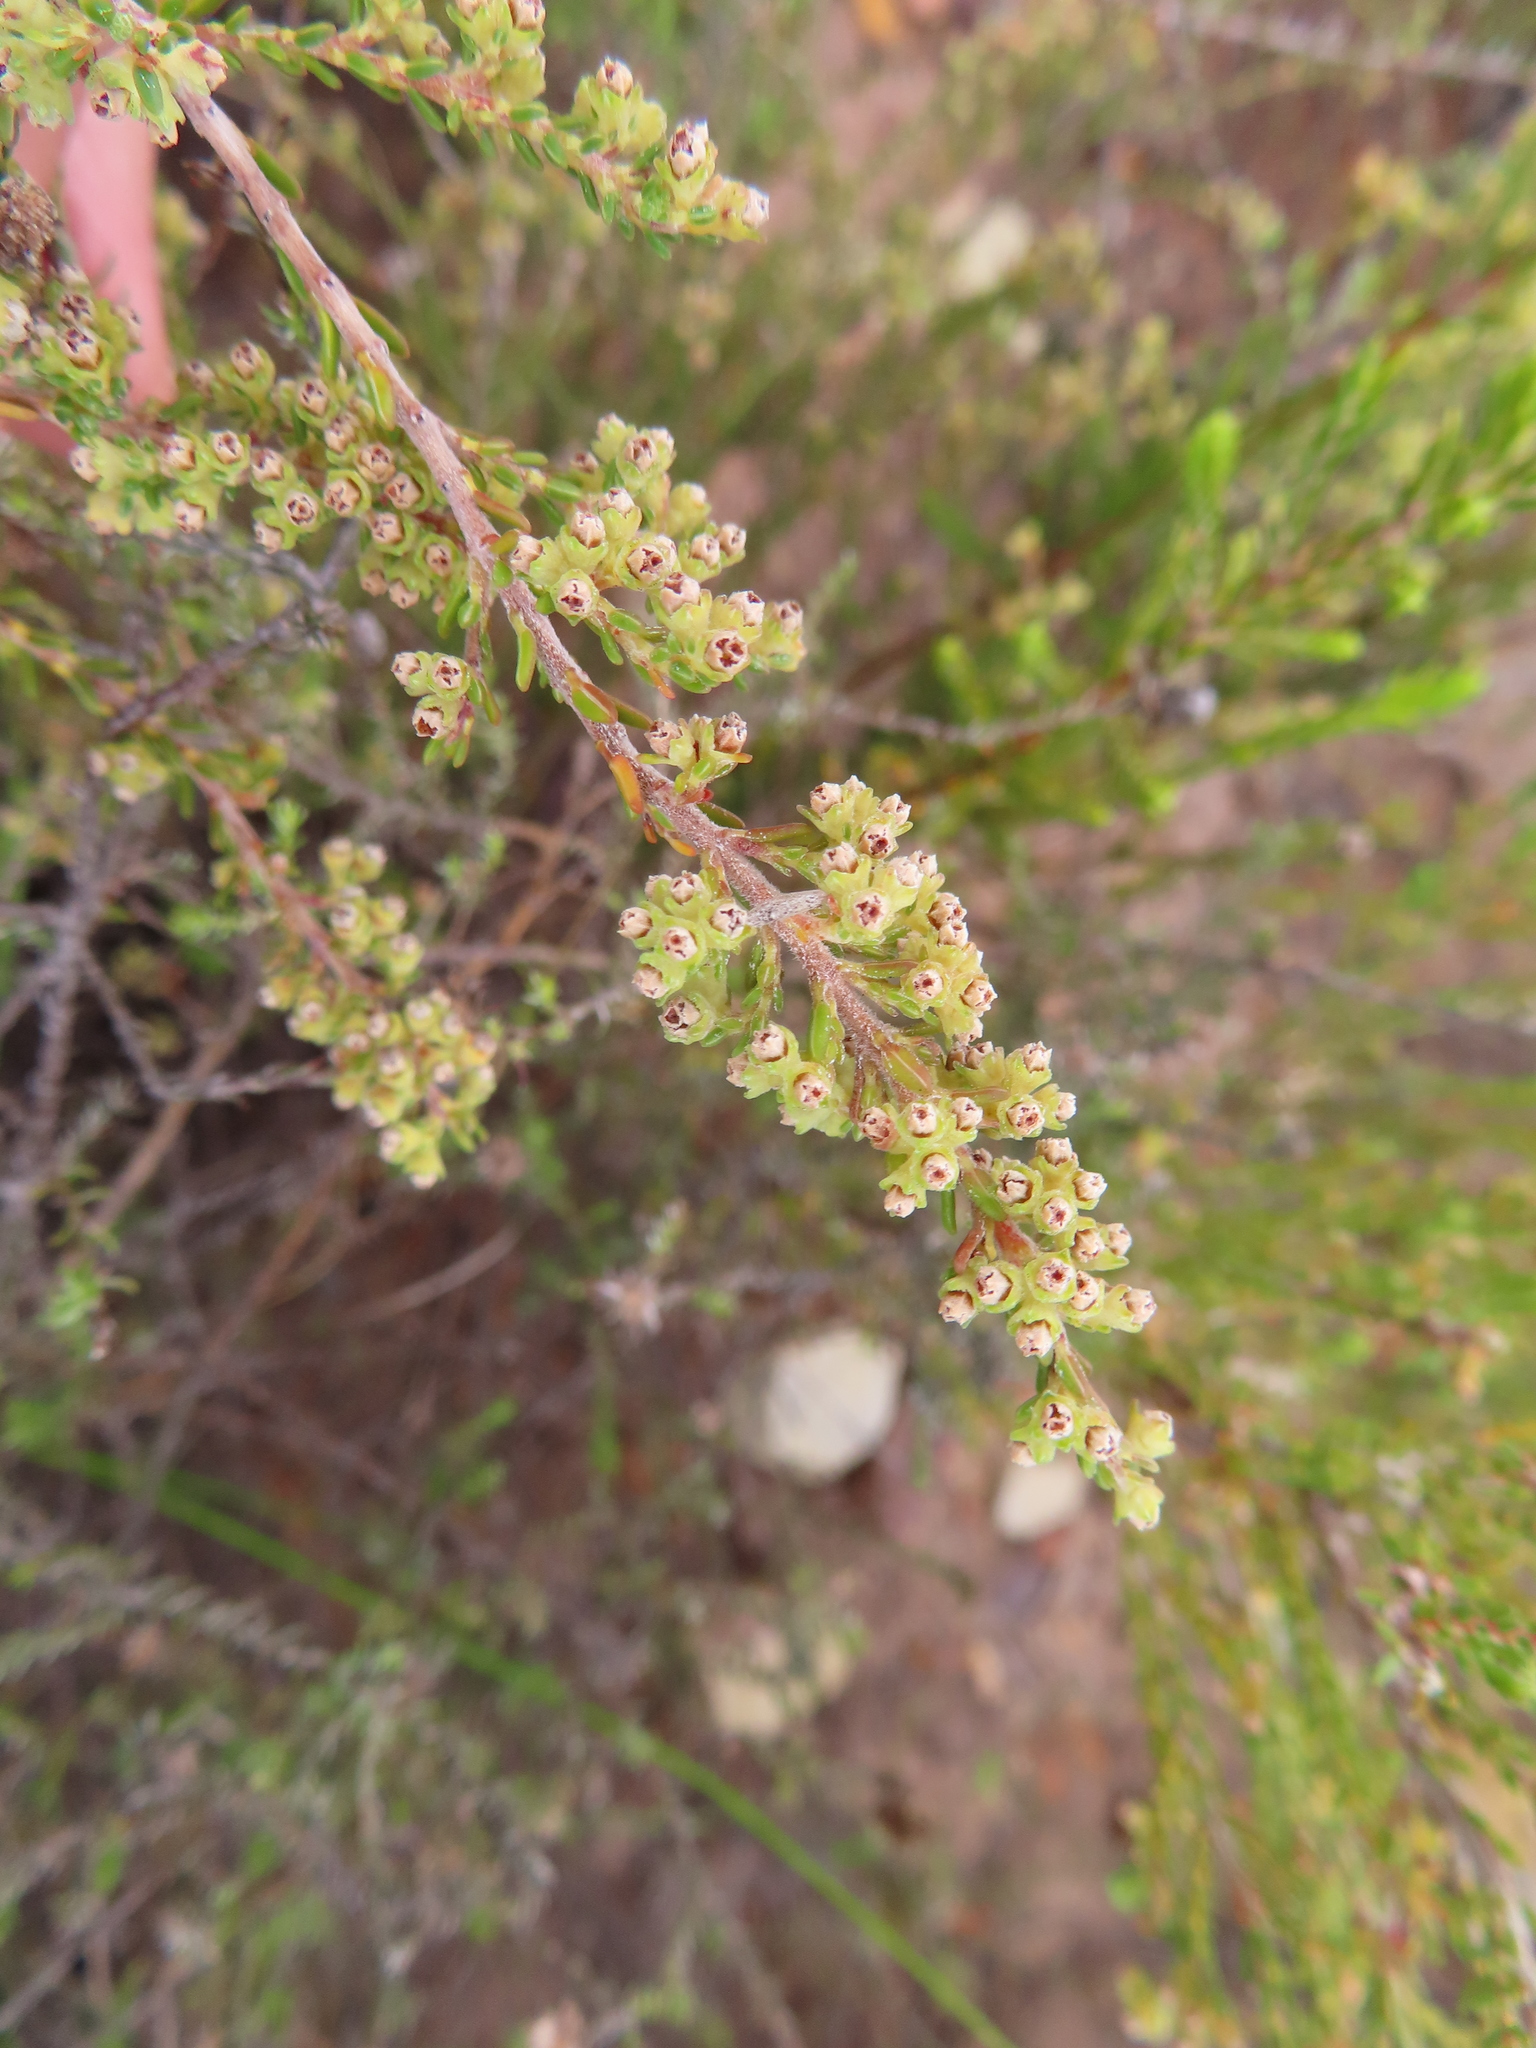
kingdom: Plantae
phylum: Tracheophyta
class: Magnoliopsida
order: Ericales
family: Ericaceae
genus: Erica
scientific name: Erica serrata
